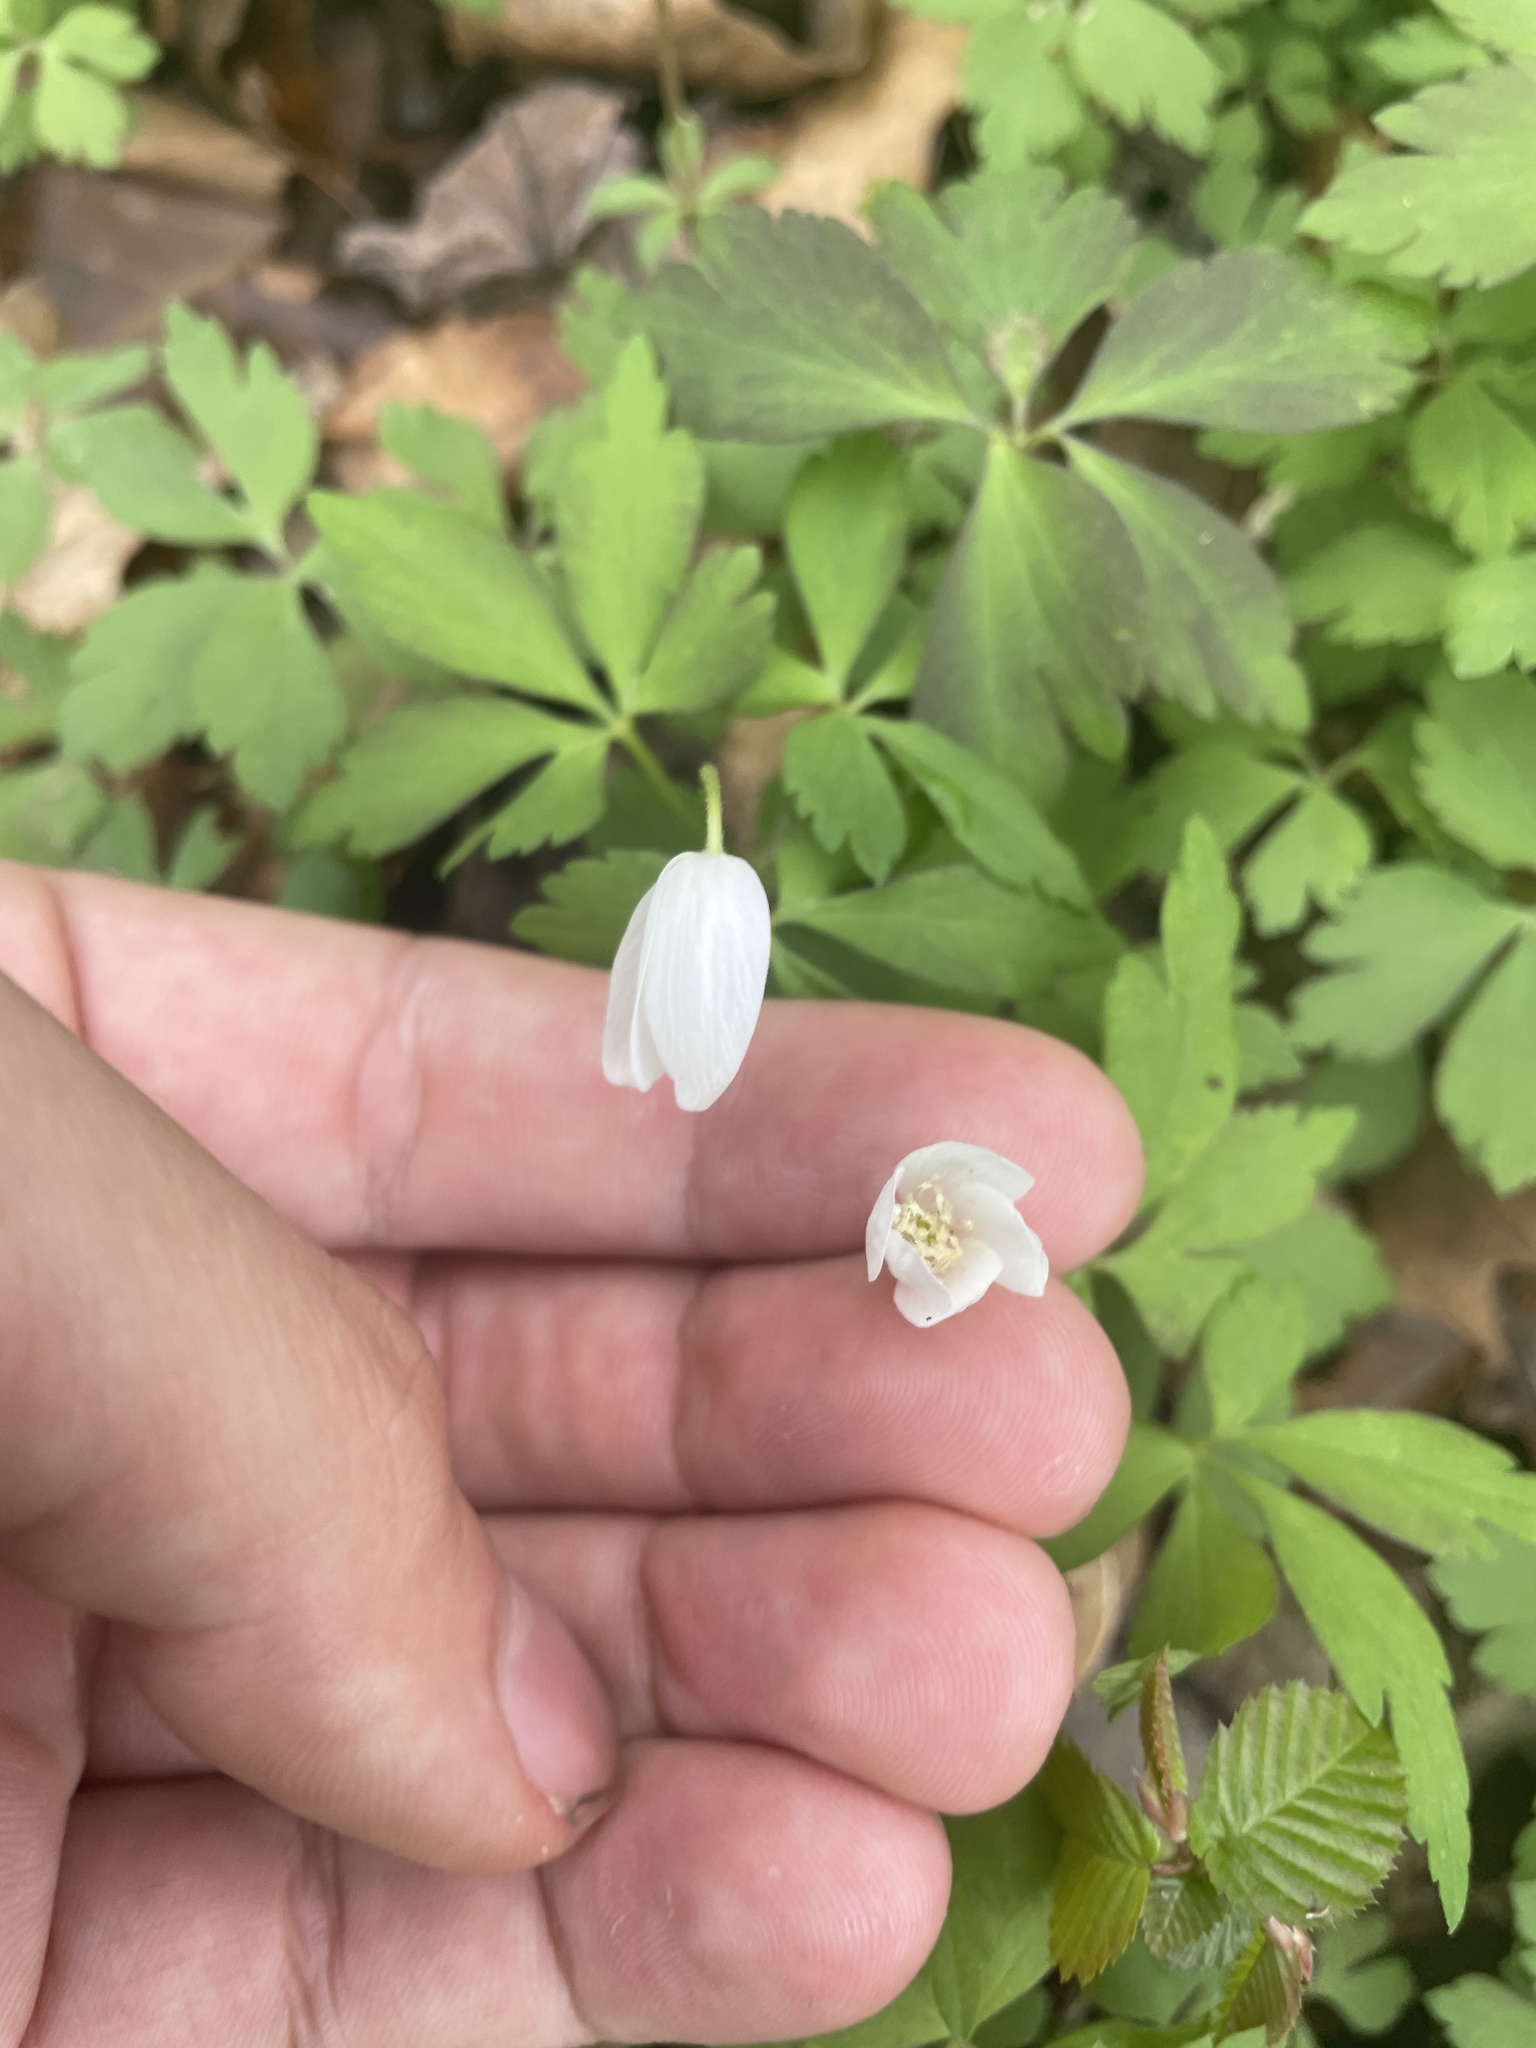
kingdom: Plantae
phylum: Tracheophyta
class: Magnoliopsida
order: Ranunculales
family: Ranunculaceae
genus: Anemone
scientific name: Anemone quinquefolia
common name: Wood anemone
